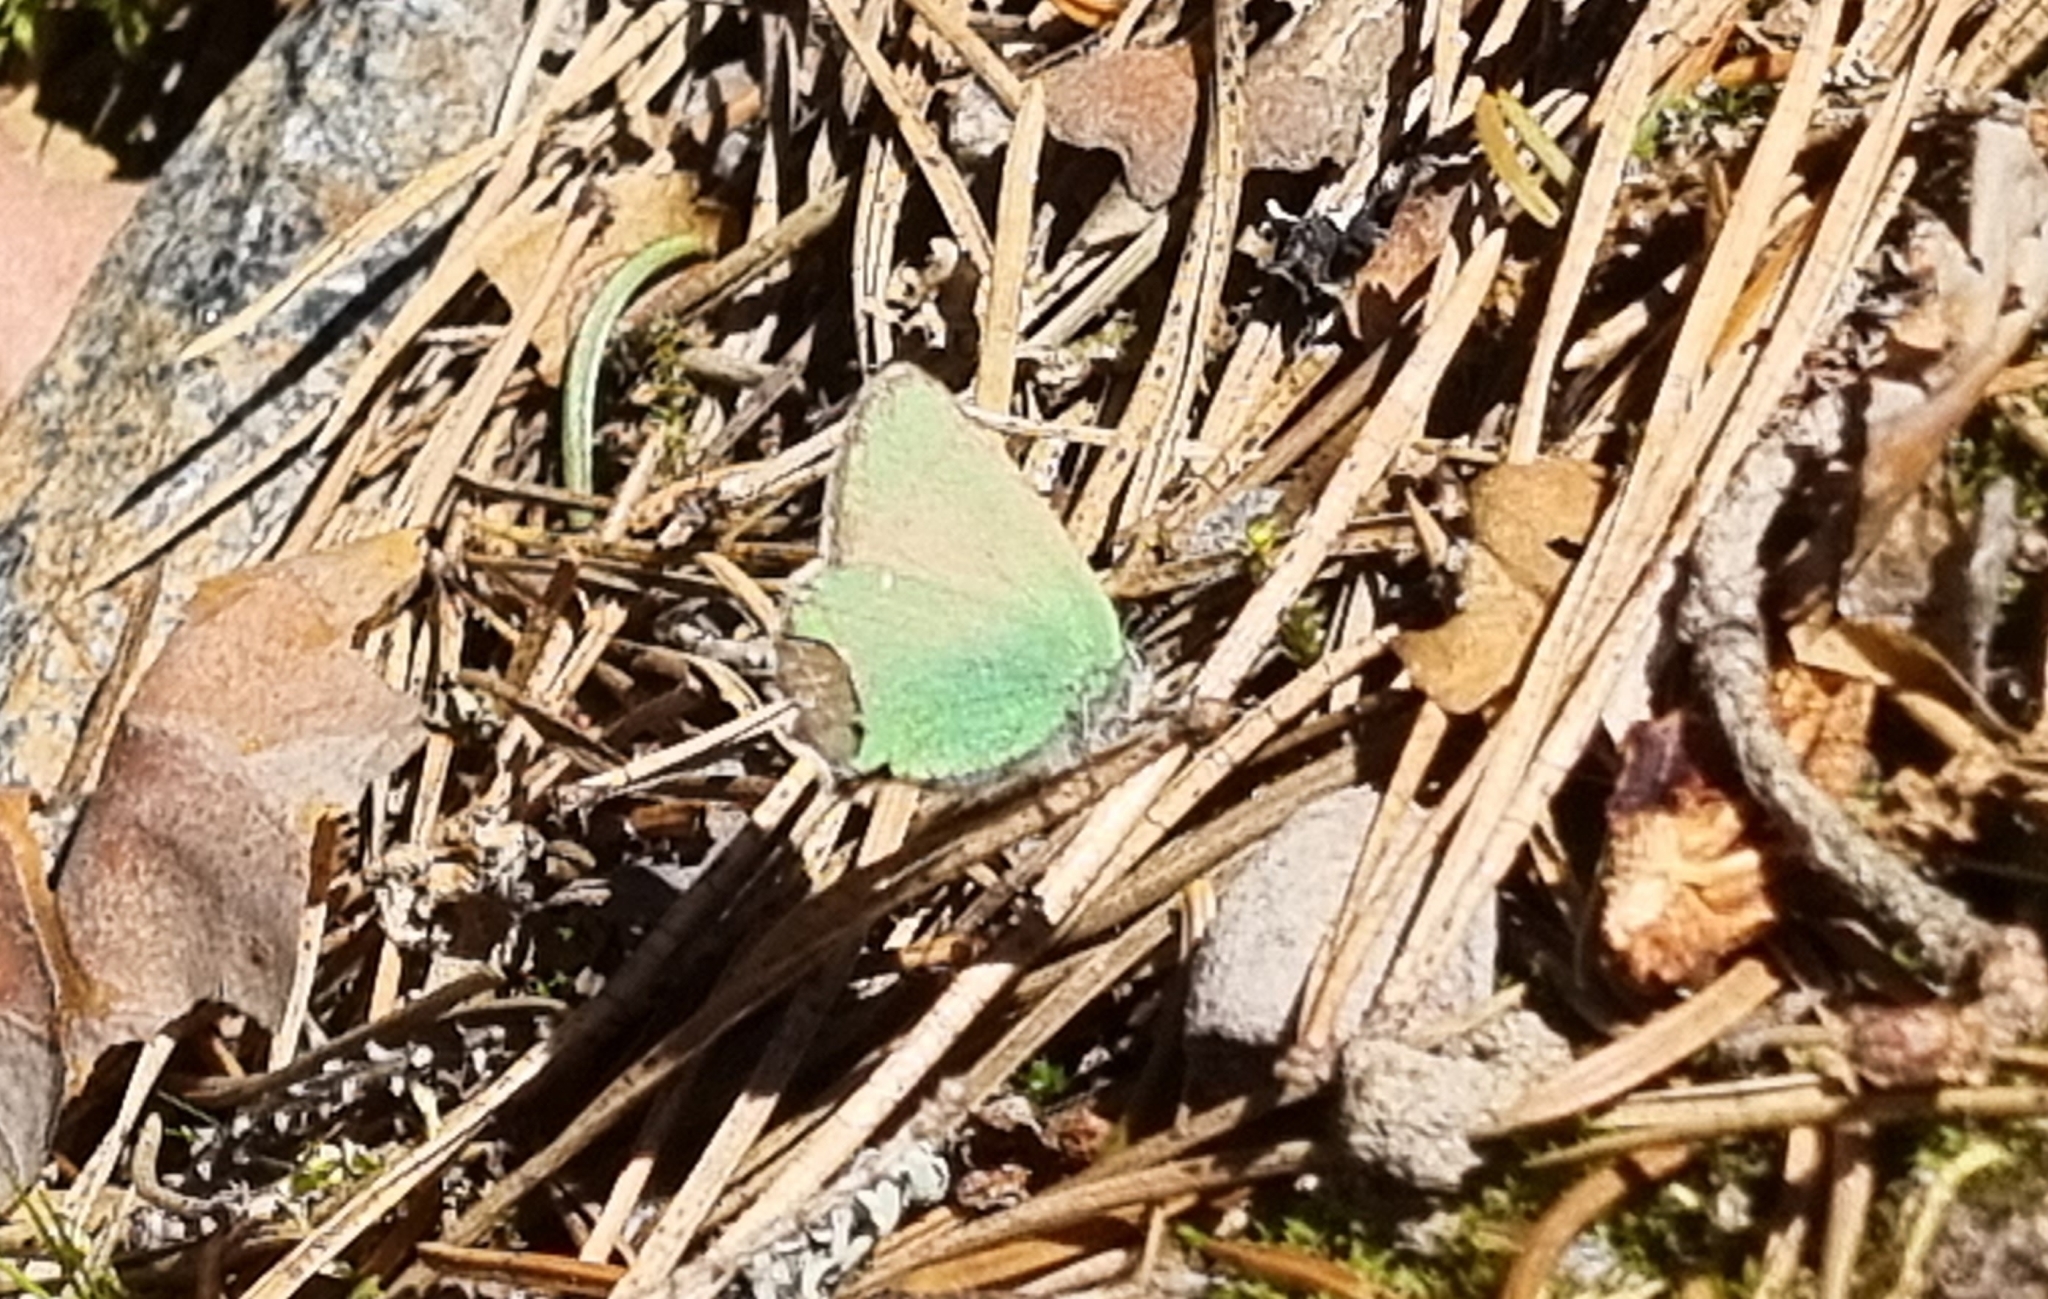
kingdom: Animalia
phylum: Arthropoda
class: Insecta
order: Lepidoptera
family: Lycaenidae
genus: Callophrys
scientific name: Callophrys rubi
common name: Green hairstreak
